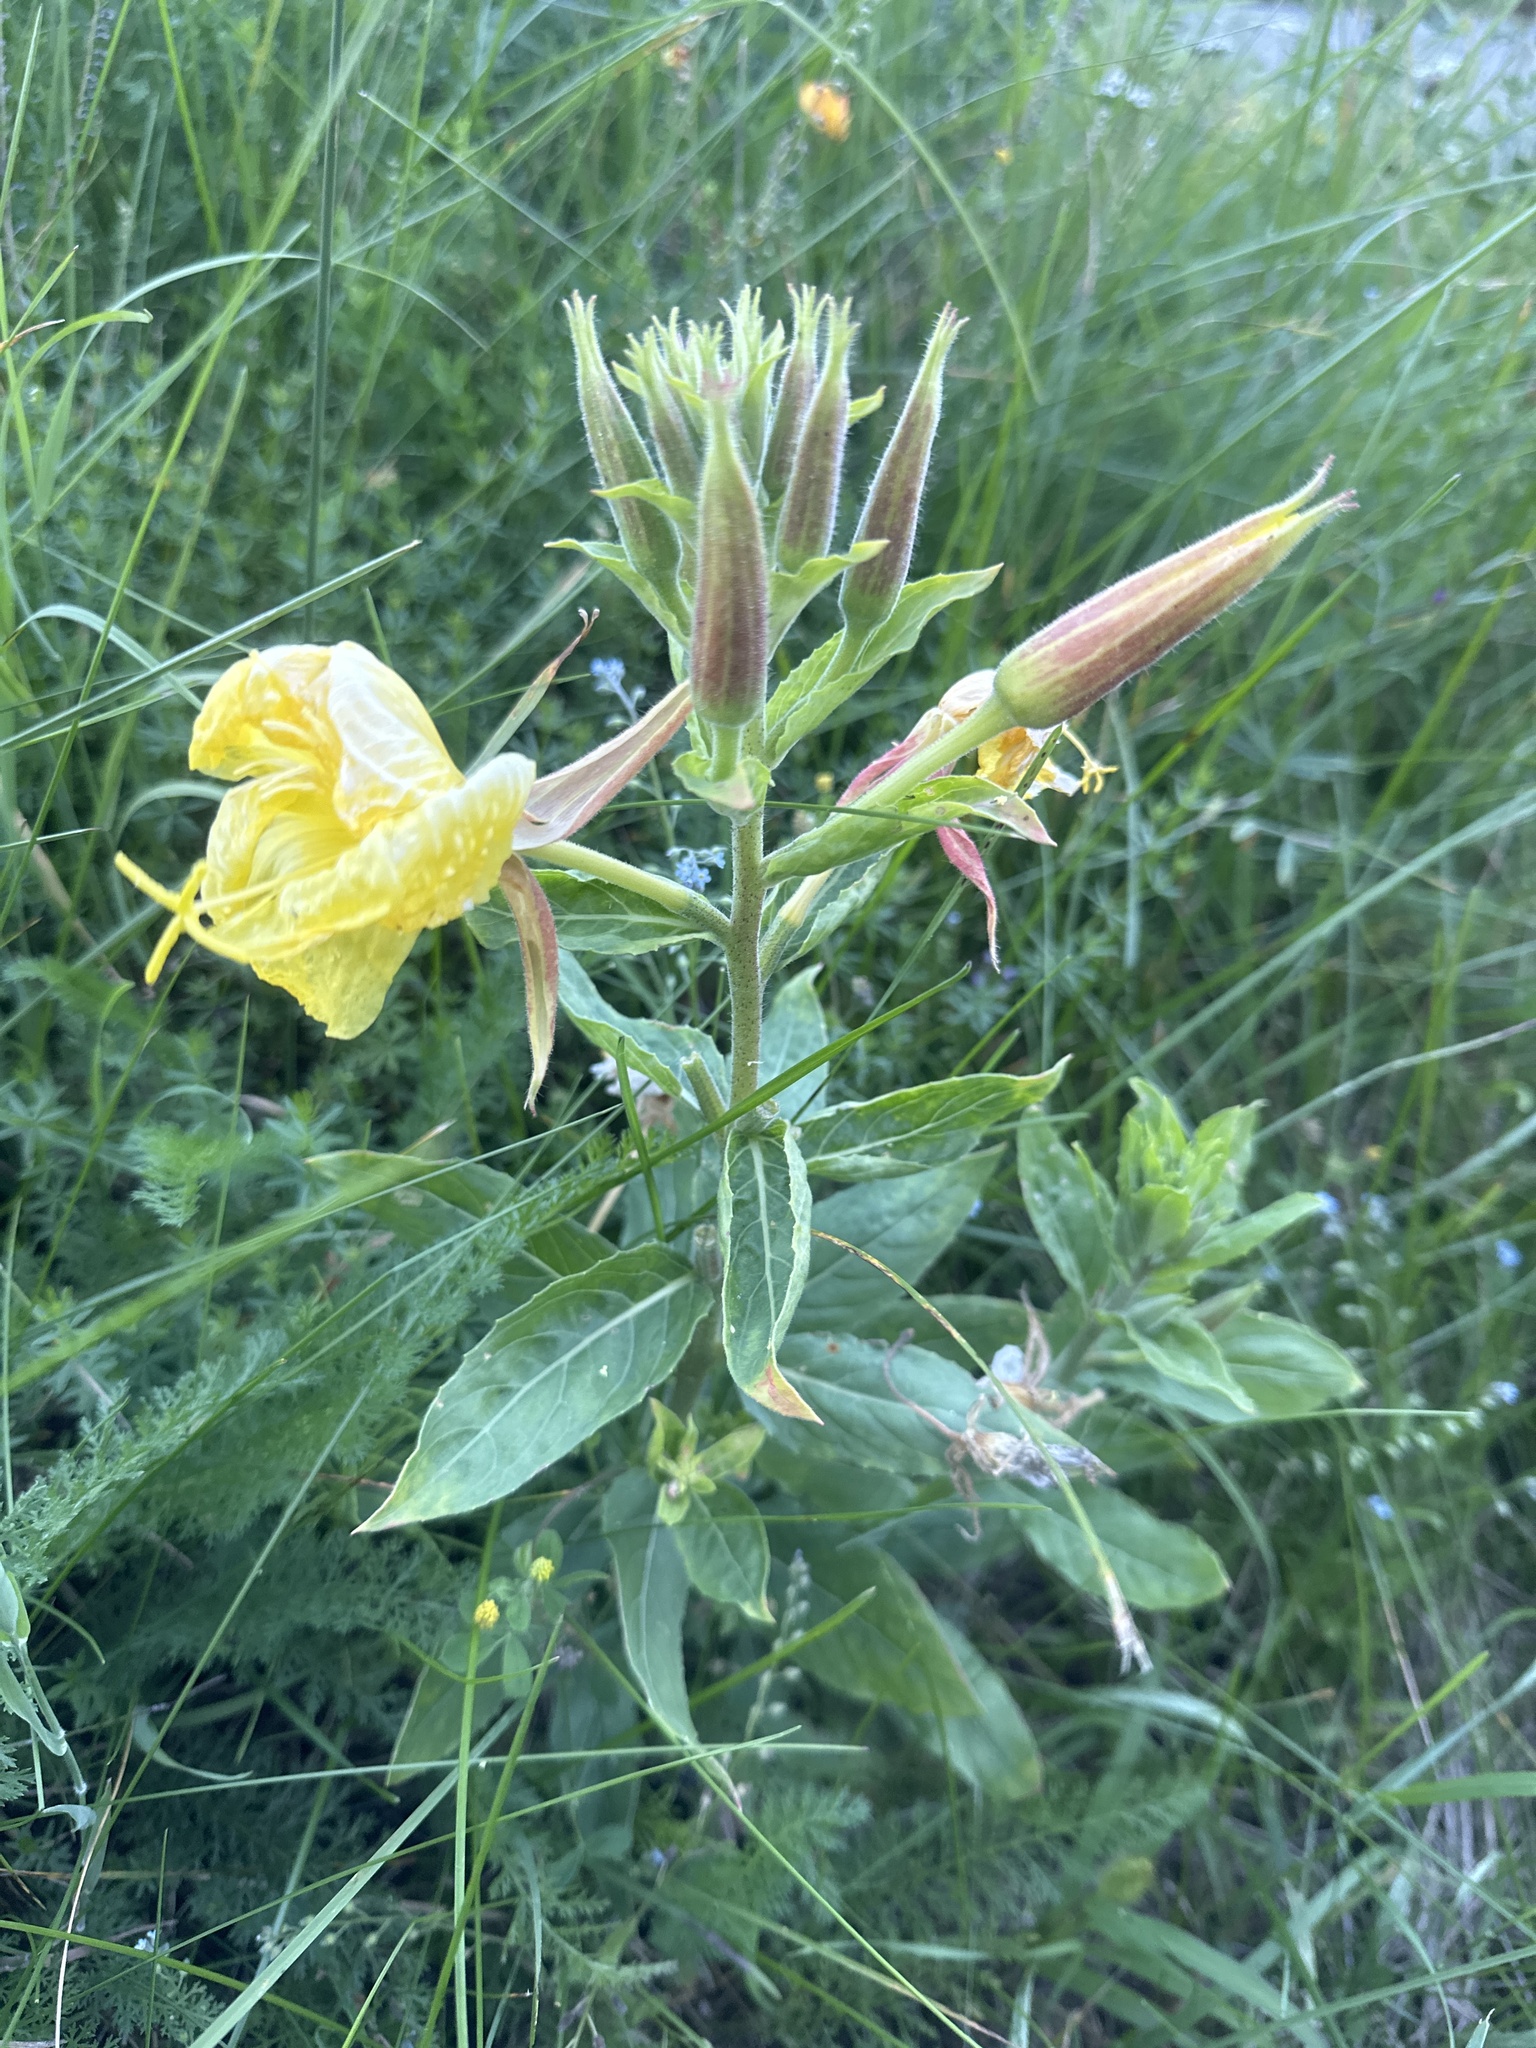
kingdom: Plantae
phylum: Tracheophyta
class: Magnoliopsida
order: Myrtales
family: Onagraceae
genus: Oenothera
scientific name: Oenothera glazioviana
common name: Large-flowered evening-primrose
